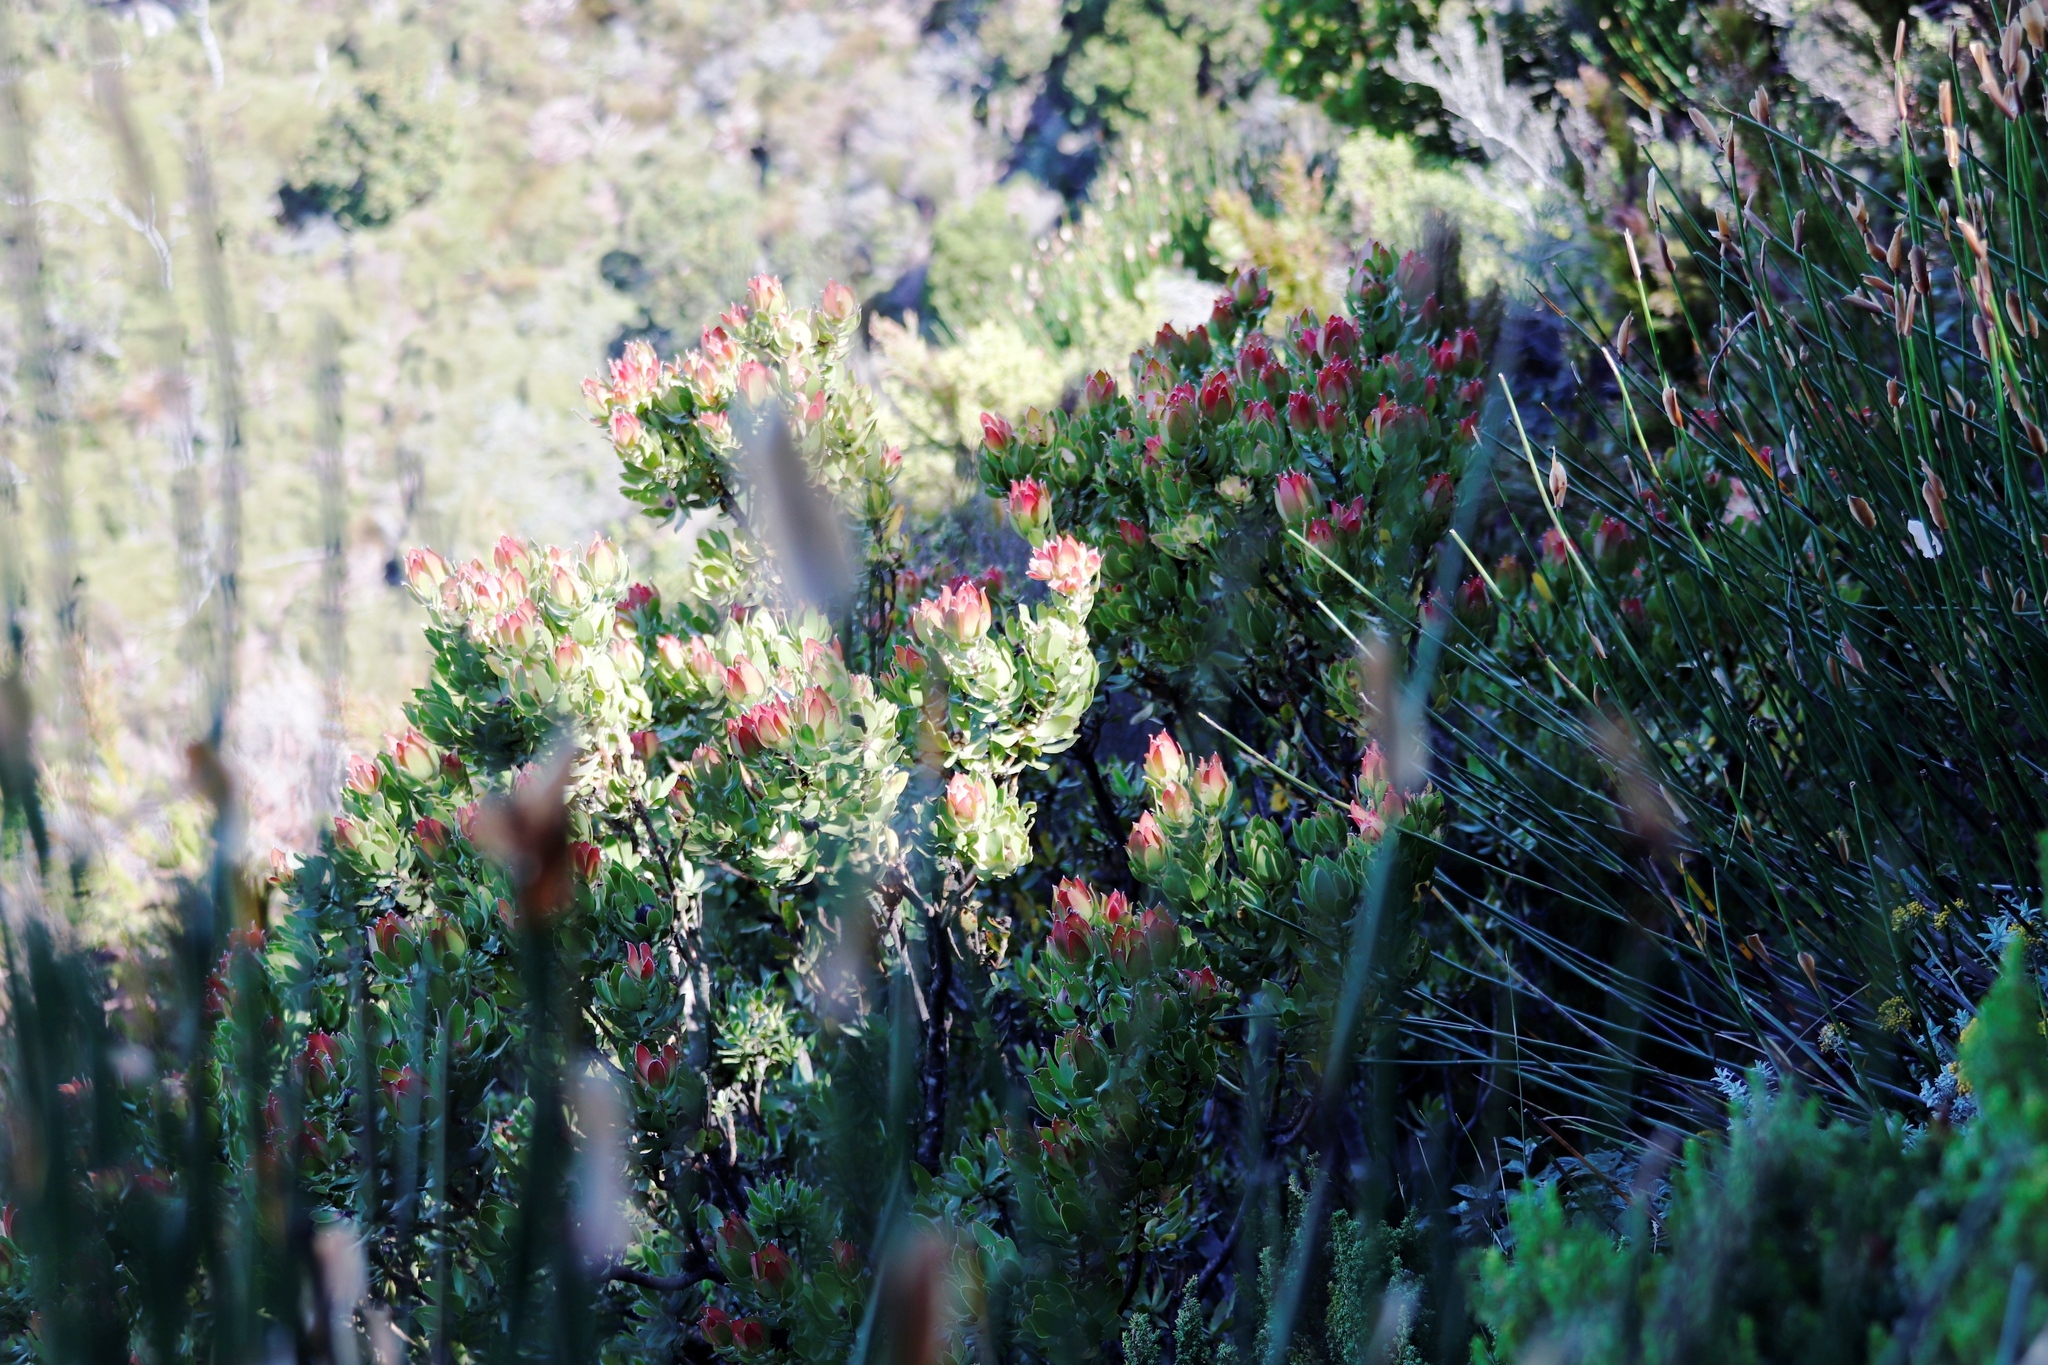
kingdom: Plantae
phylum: Tracheophyta
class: Magnoliopsida
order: Proteales
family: Proteaceae
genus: Leucadendron
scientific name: Leucadendron strobilinum
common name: Mountain rose
